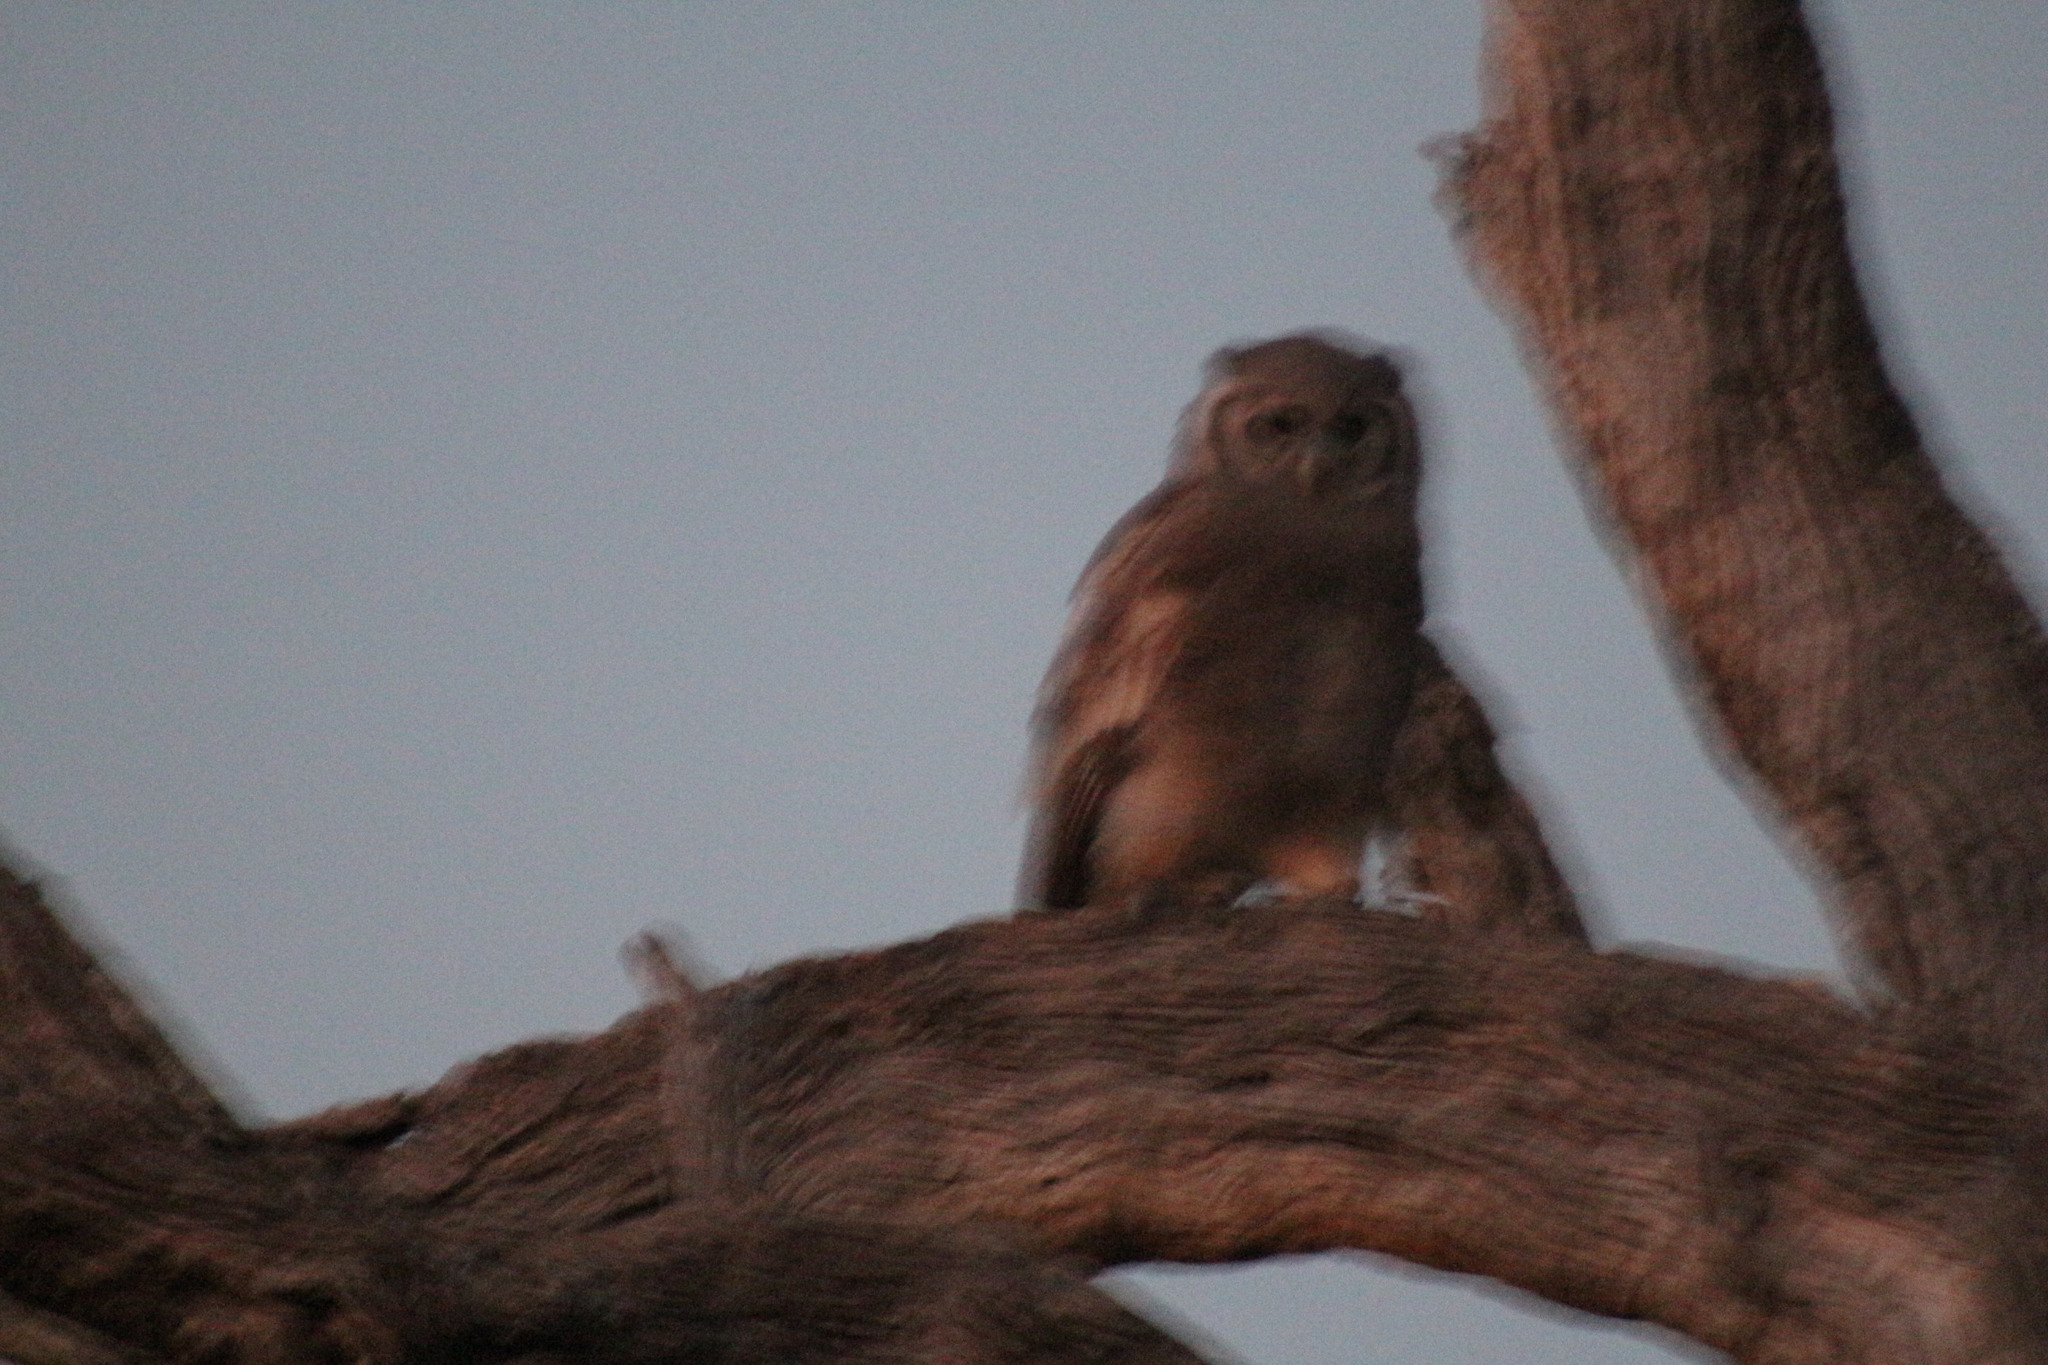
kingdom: Animalia
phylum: Chordata
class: Aves
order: Strigiformes
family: Strigidae
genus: Bubo
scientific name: Bubo lacteus
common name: Verreaux's eagle-owl
